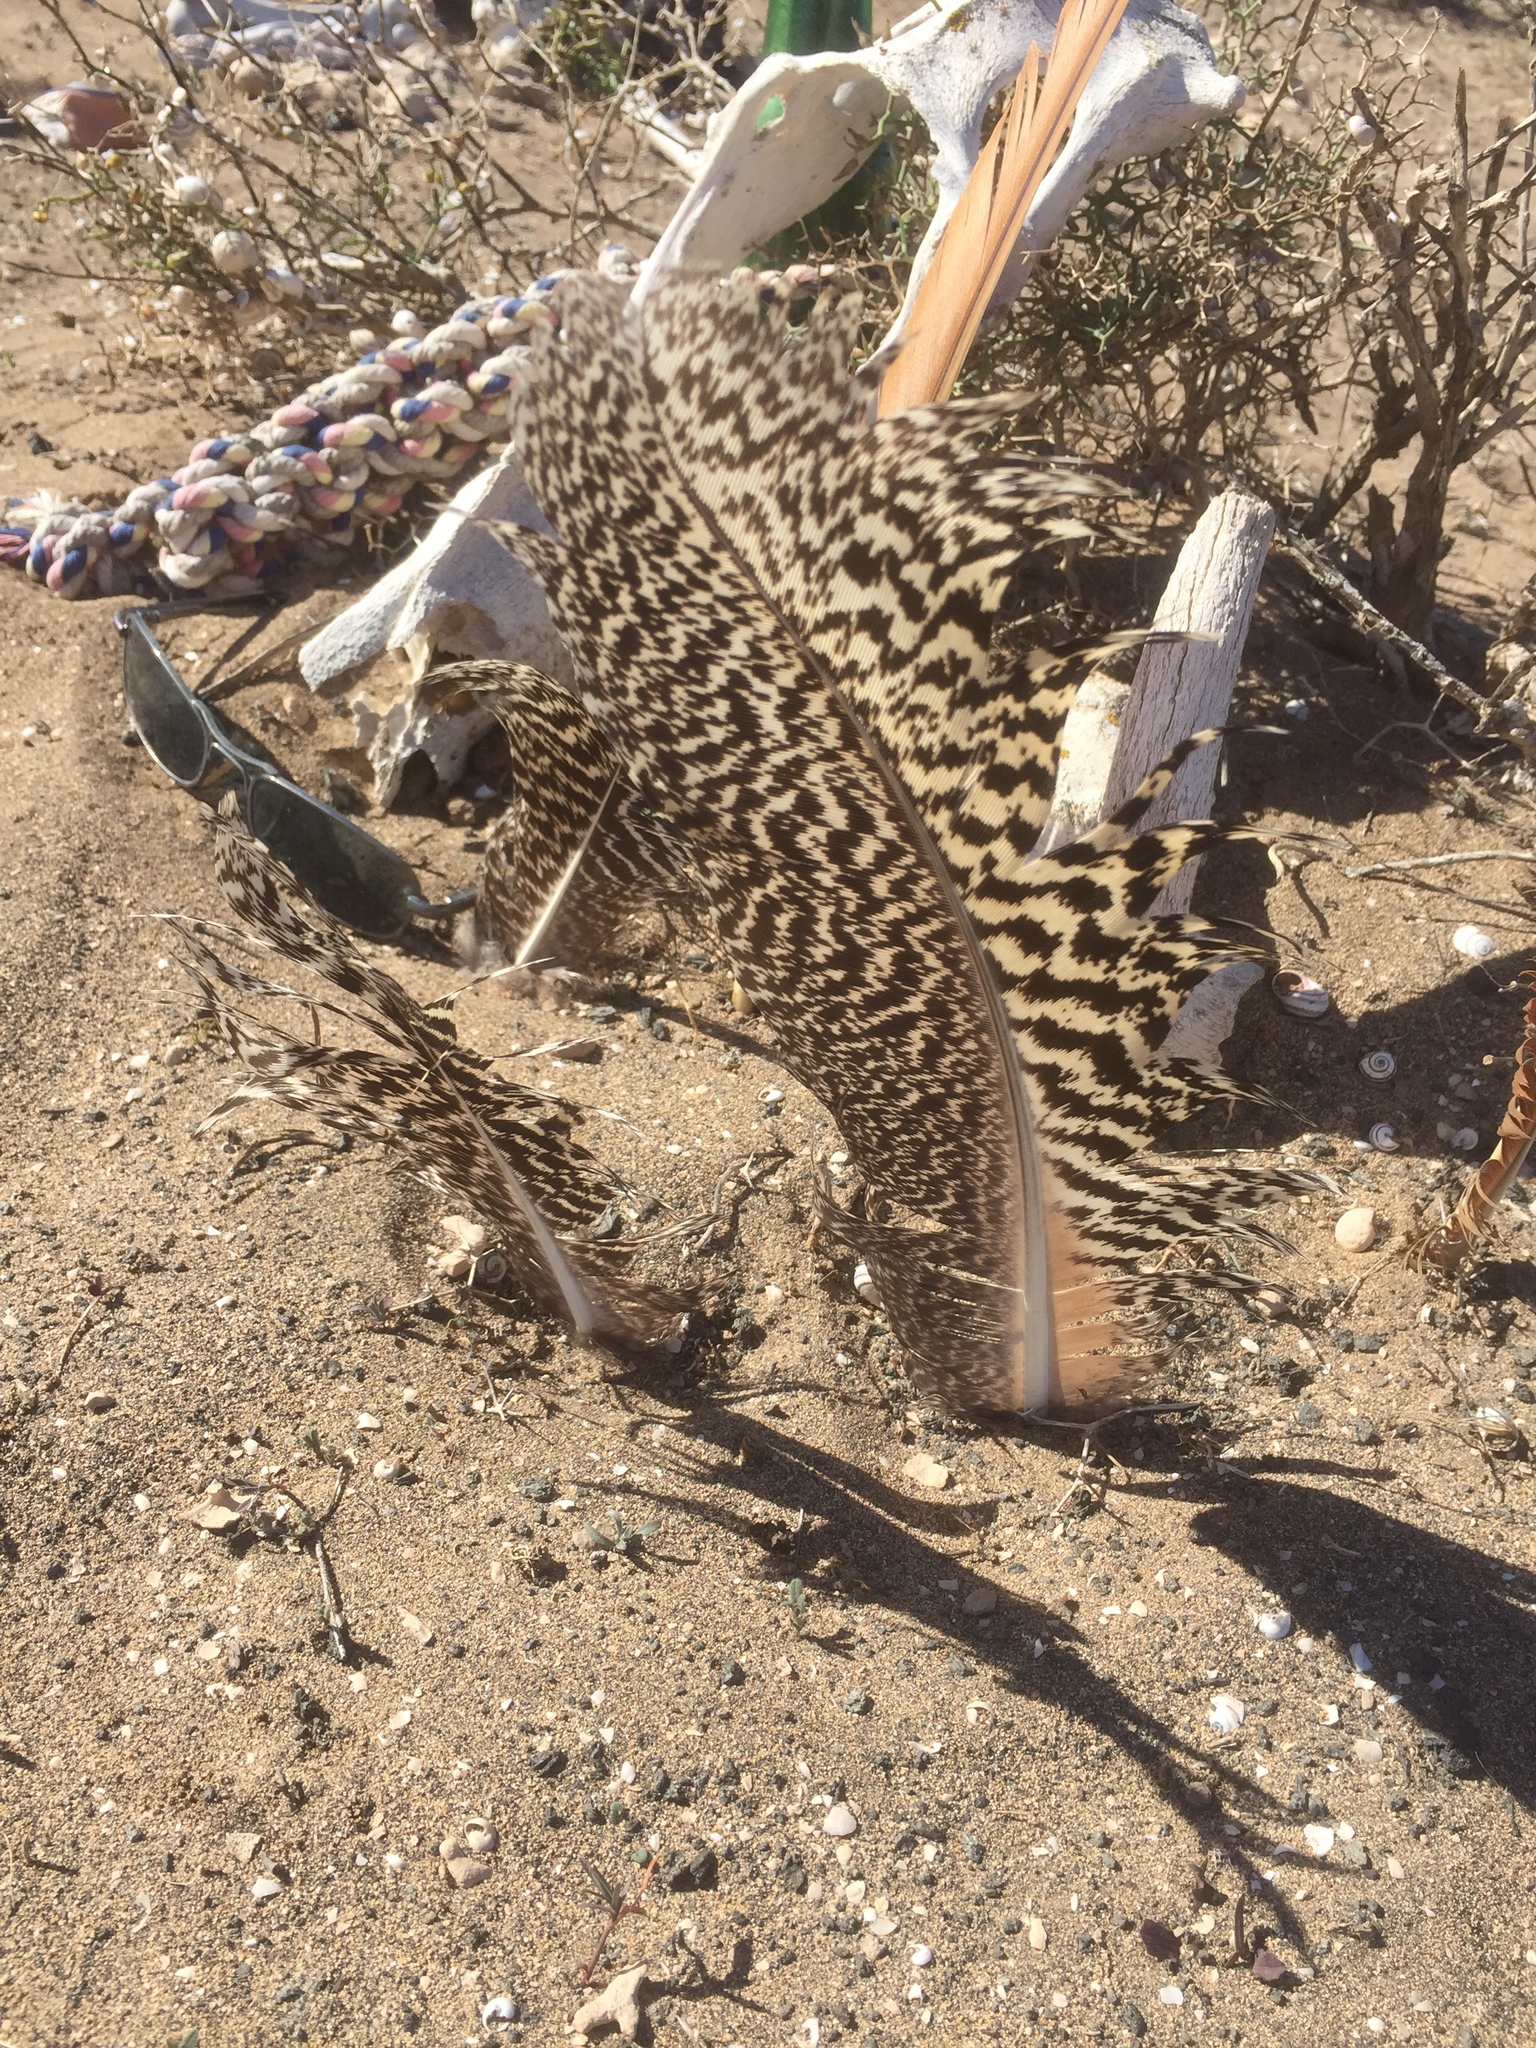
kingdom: Animalia
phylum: Chordata
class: Aves
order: Galliformes
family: Phasianidae
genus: Pavo
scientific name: Pavo cristatus
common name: Indian peafowl
